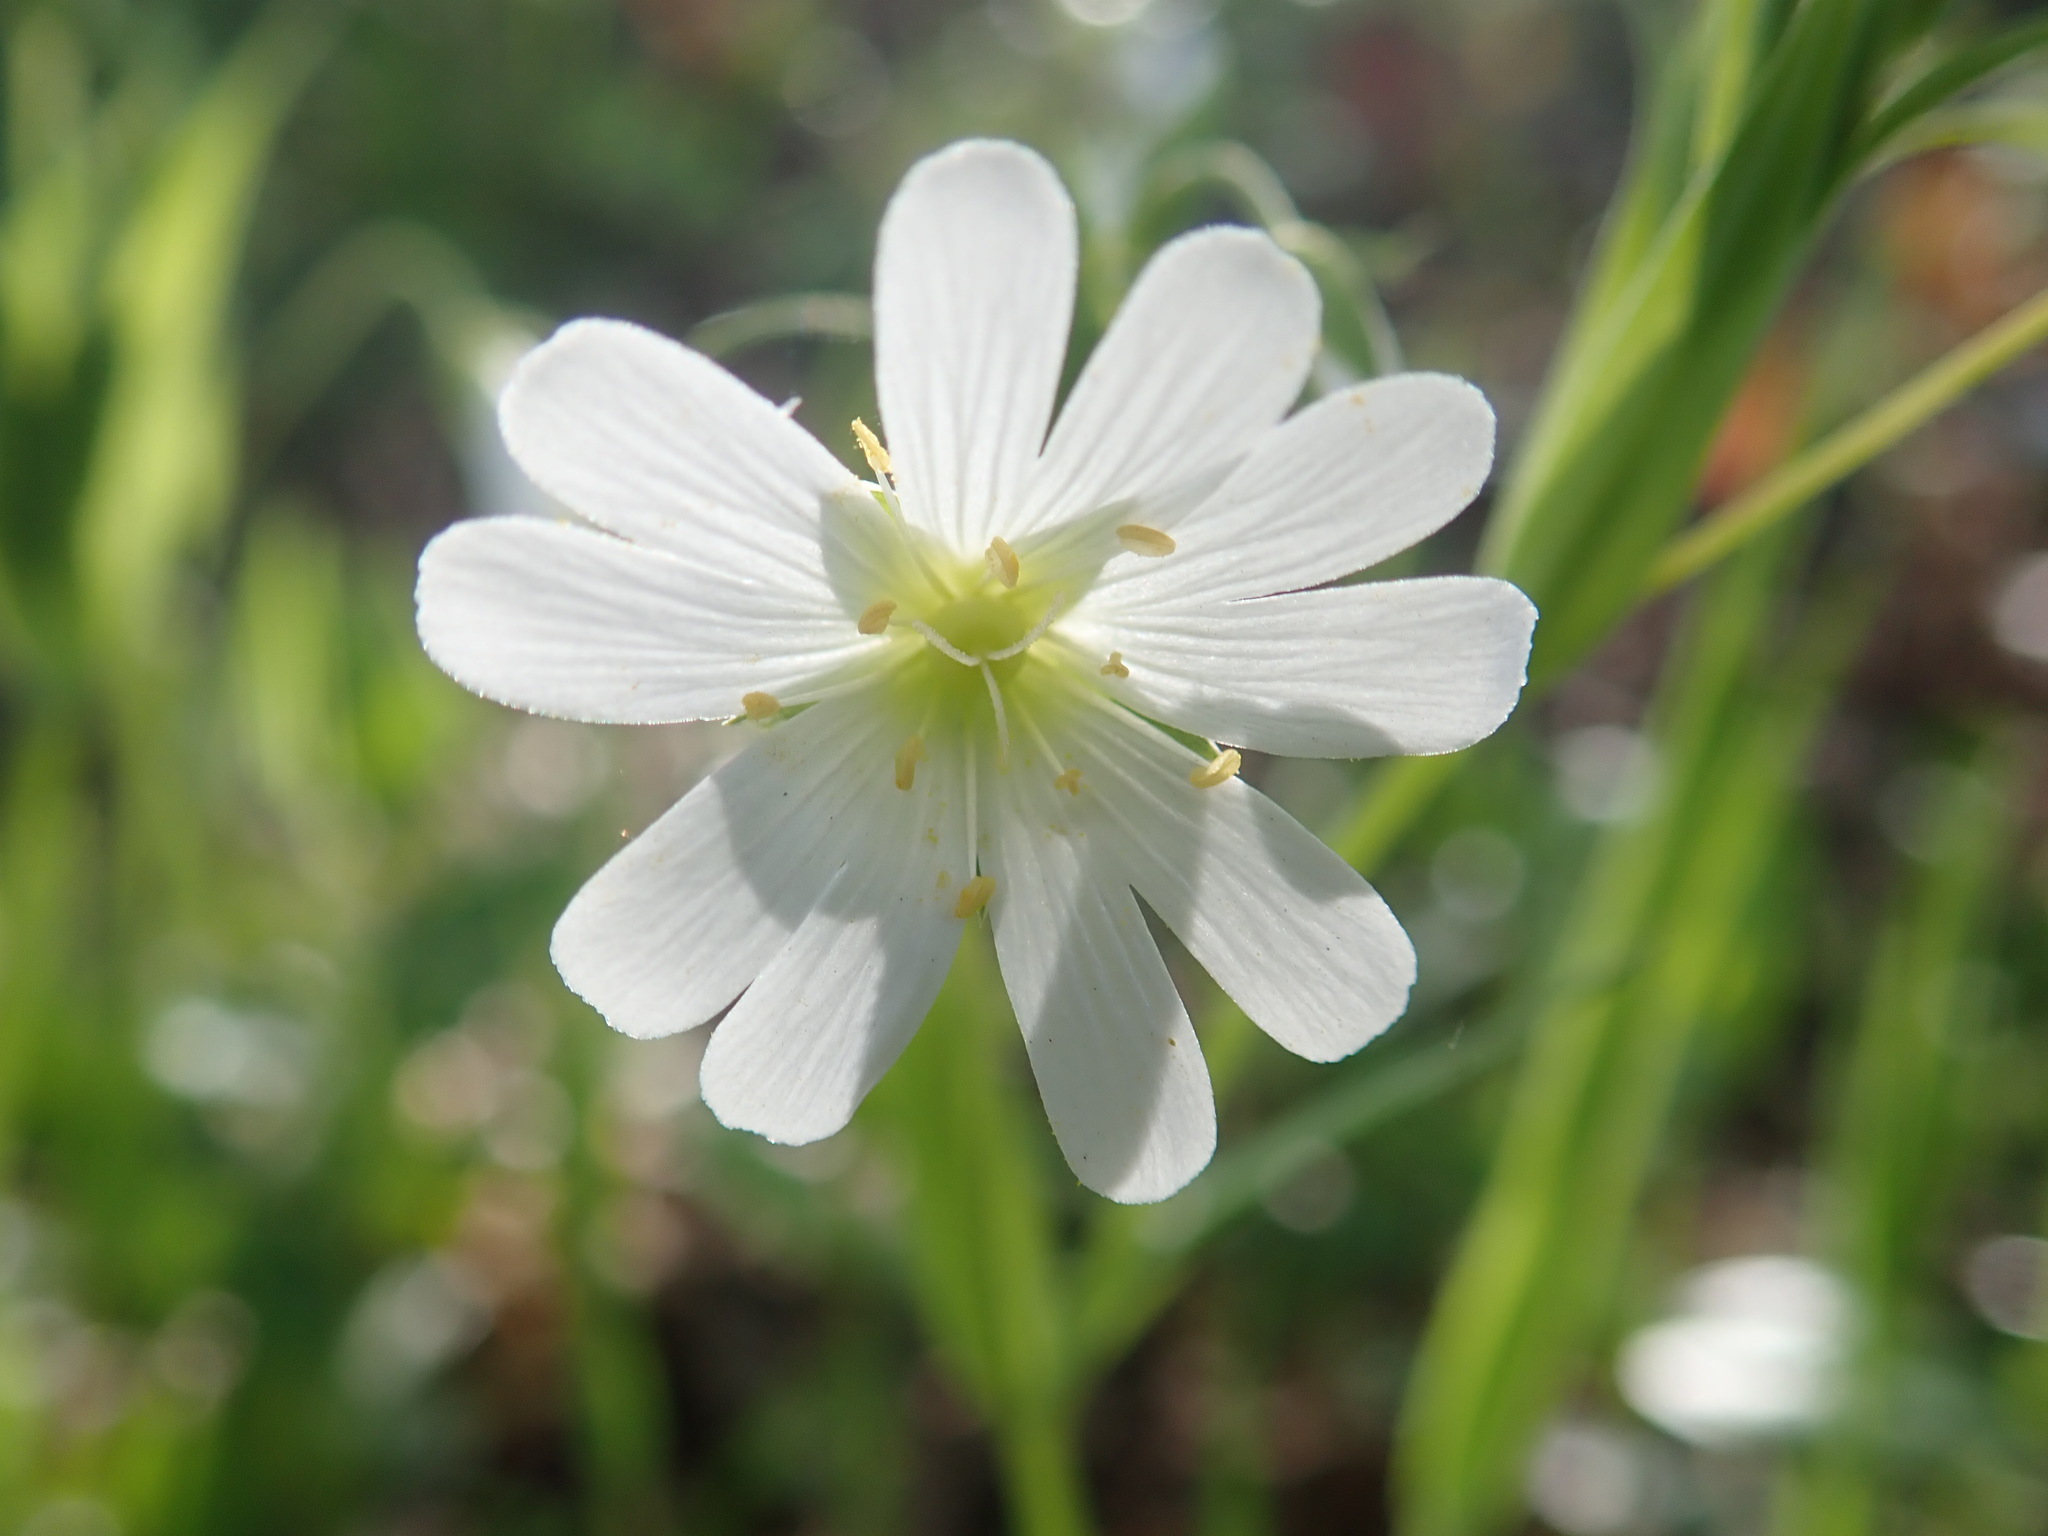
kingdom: Plantae
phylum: Tracheophyta
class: Magnoliopsida
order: Caryophyllales
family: Caryophyllaceae
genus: Rabelera
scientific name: Rabelera holostea
